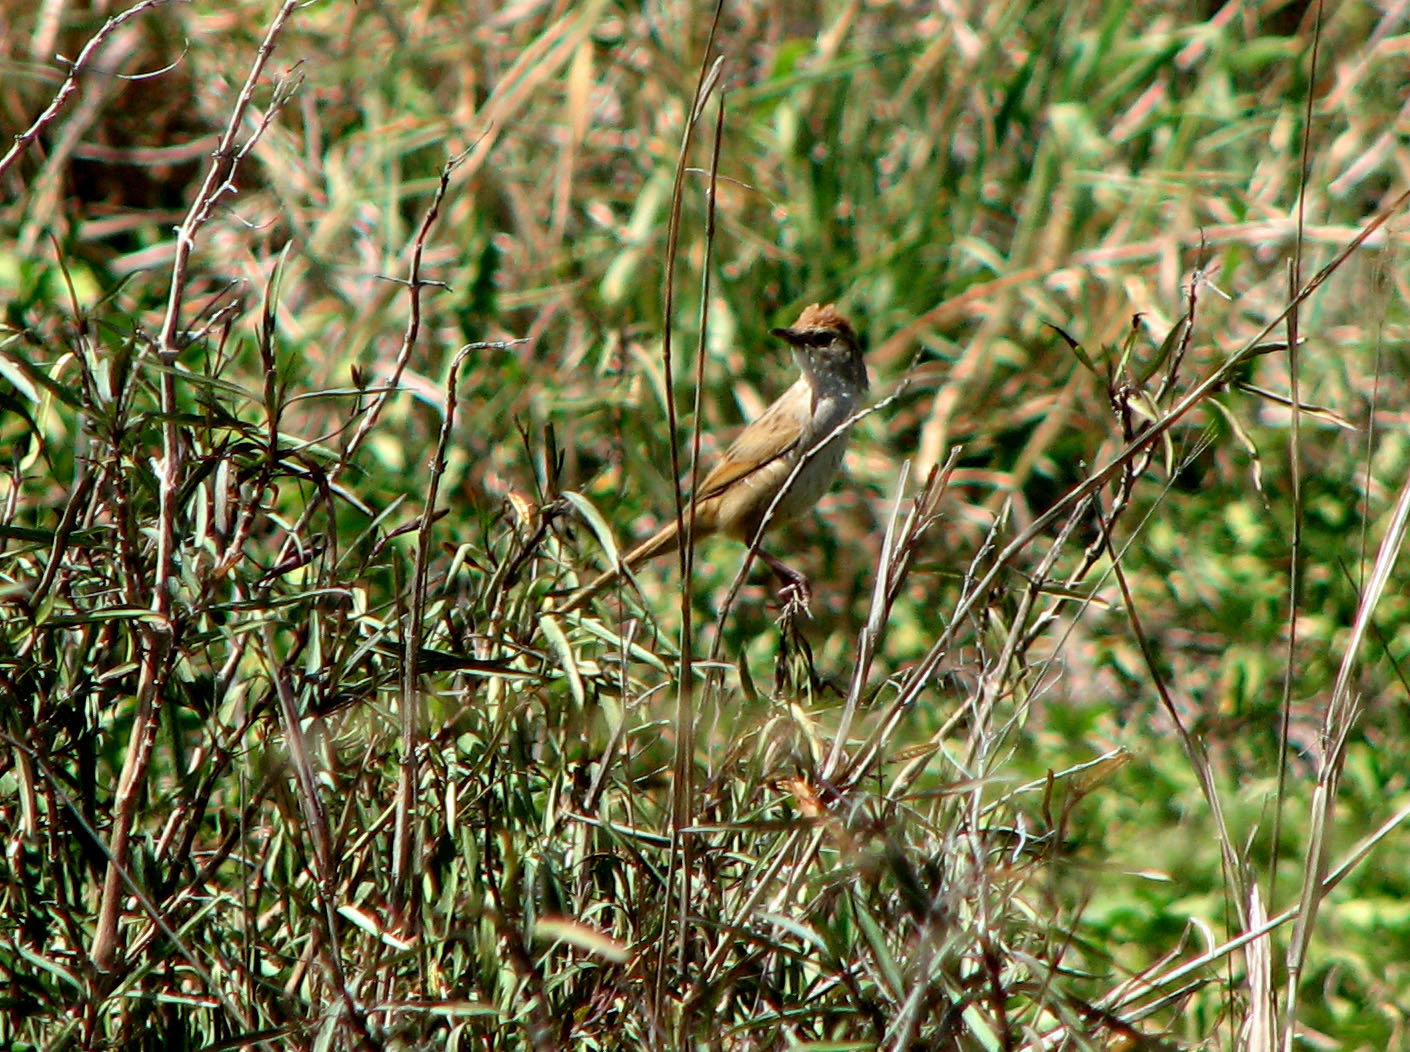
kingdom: Animalia
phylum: Chordata
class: Aves
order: Passeriformes
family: Locustellidae
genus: Megalurus
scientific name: Megalurus timoriensis
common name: Tawny grassbird
